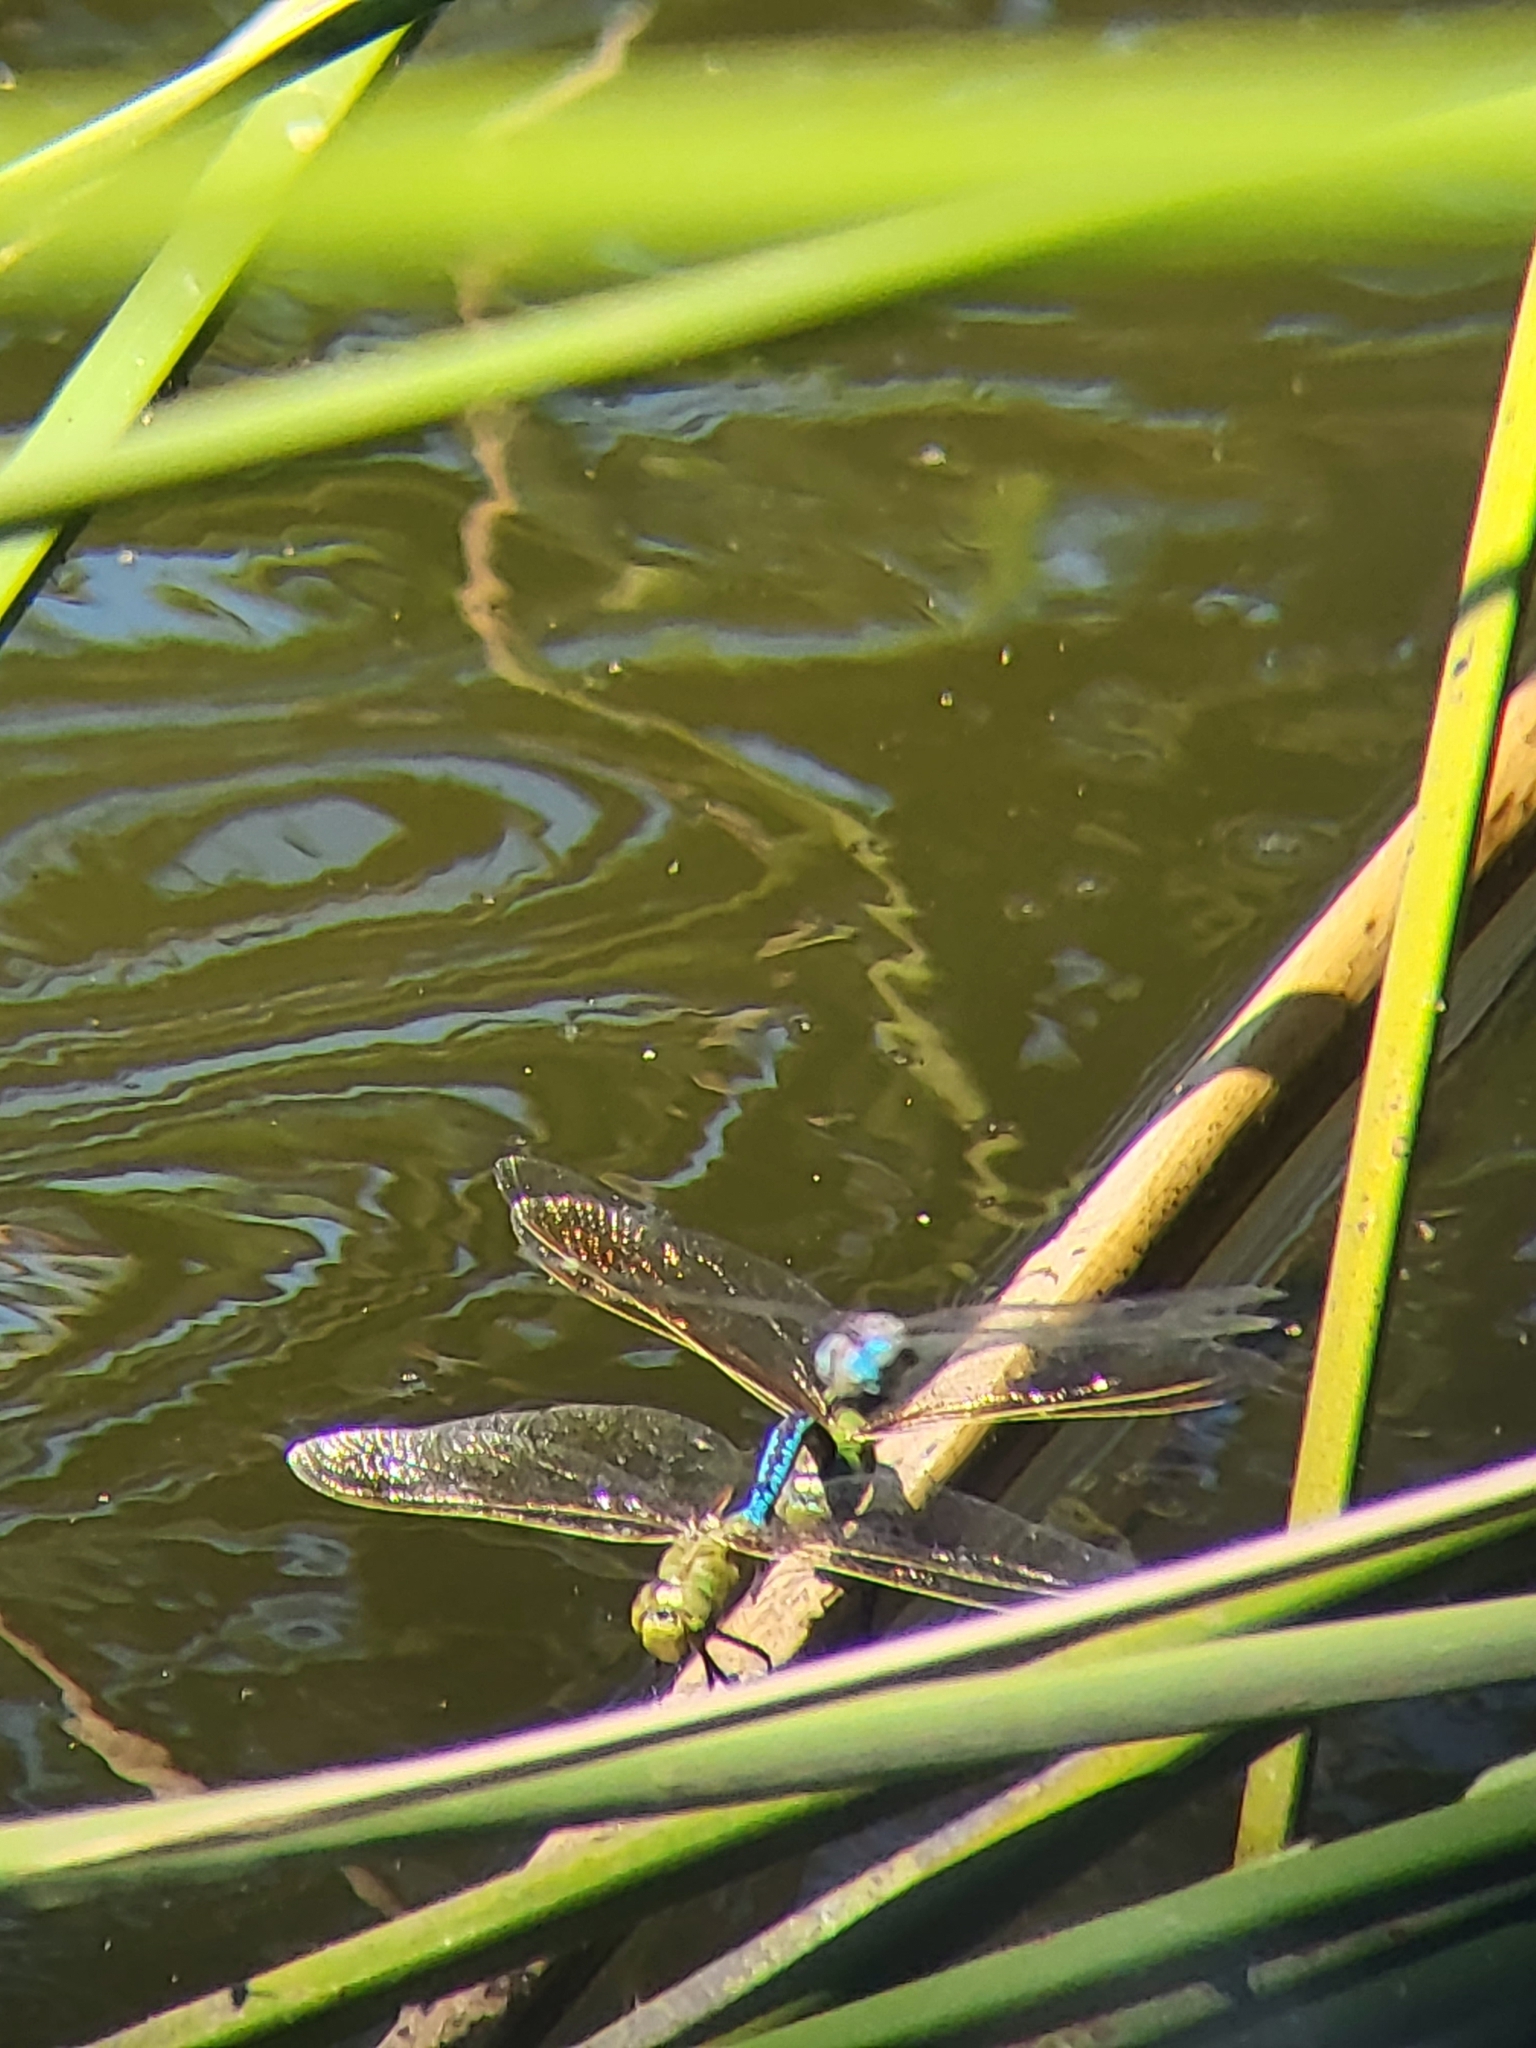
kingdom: Animalia
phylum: Arthropoda
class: Insecta
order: Odonata
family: Aeshnidae
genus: Anax
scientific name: Anax junius
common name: Common green darner
